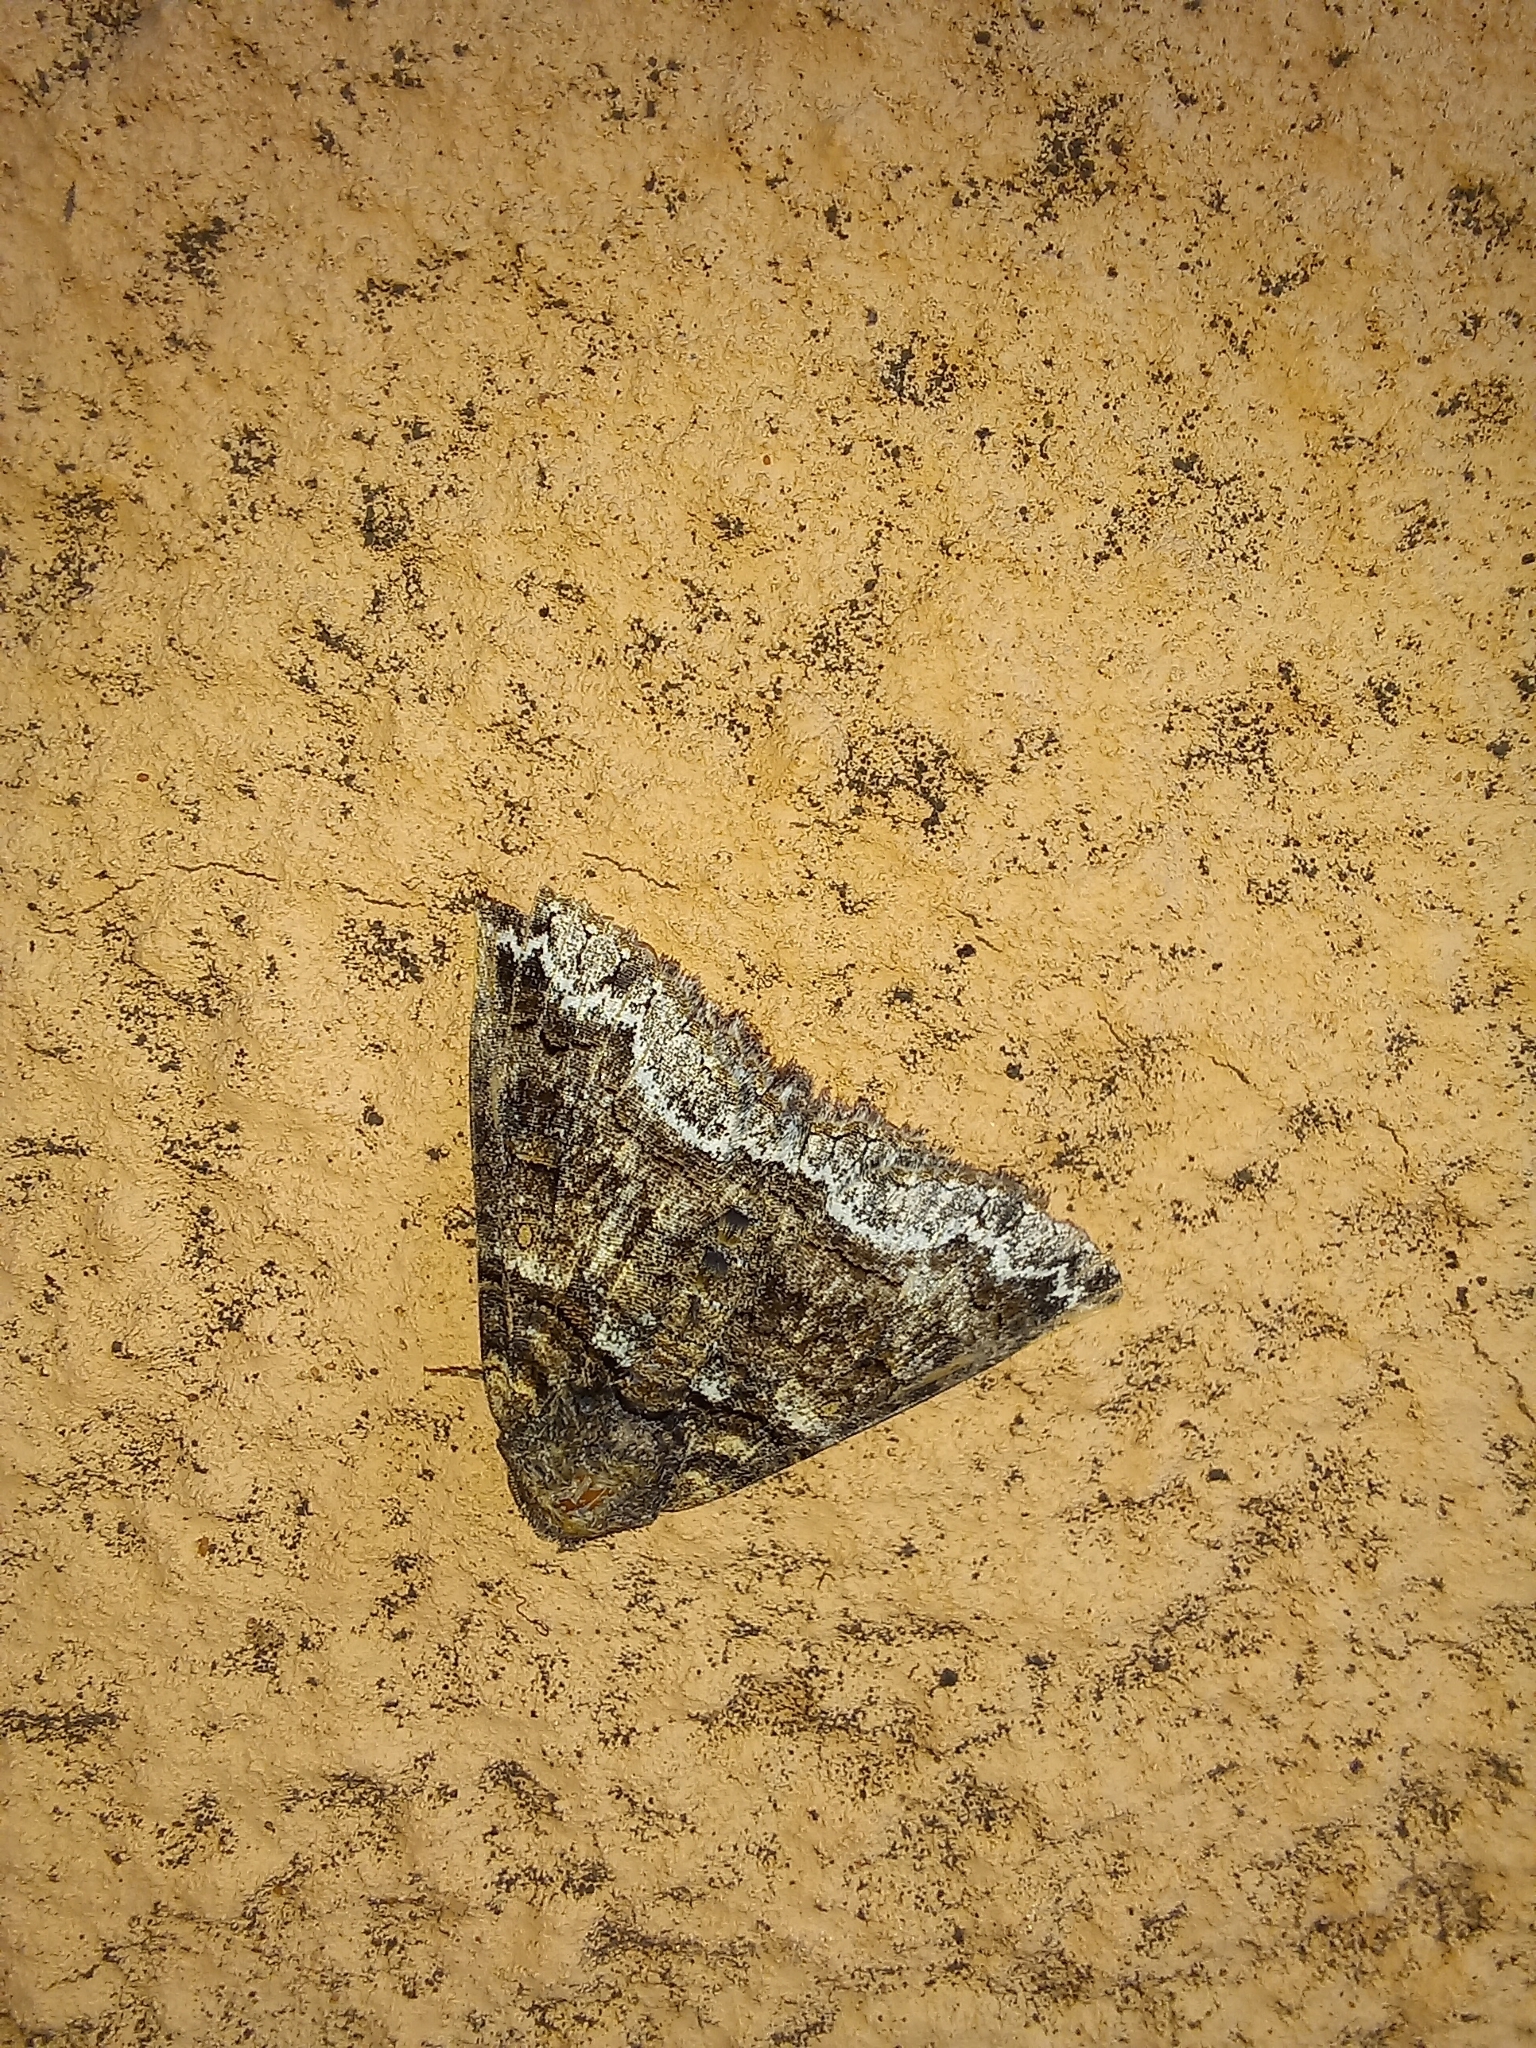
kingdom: Animalia
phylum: Arthropoda
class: Insecta
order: Lepidoptera
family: Erebidae
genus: Pericyma
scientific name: Pericyma atrifusa
